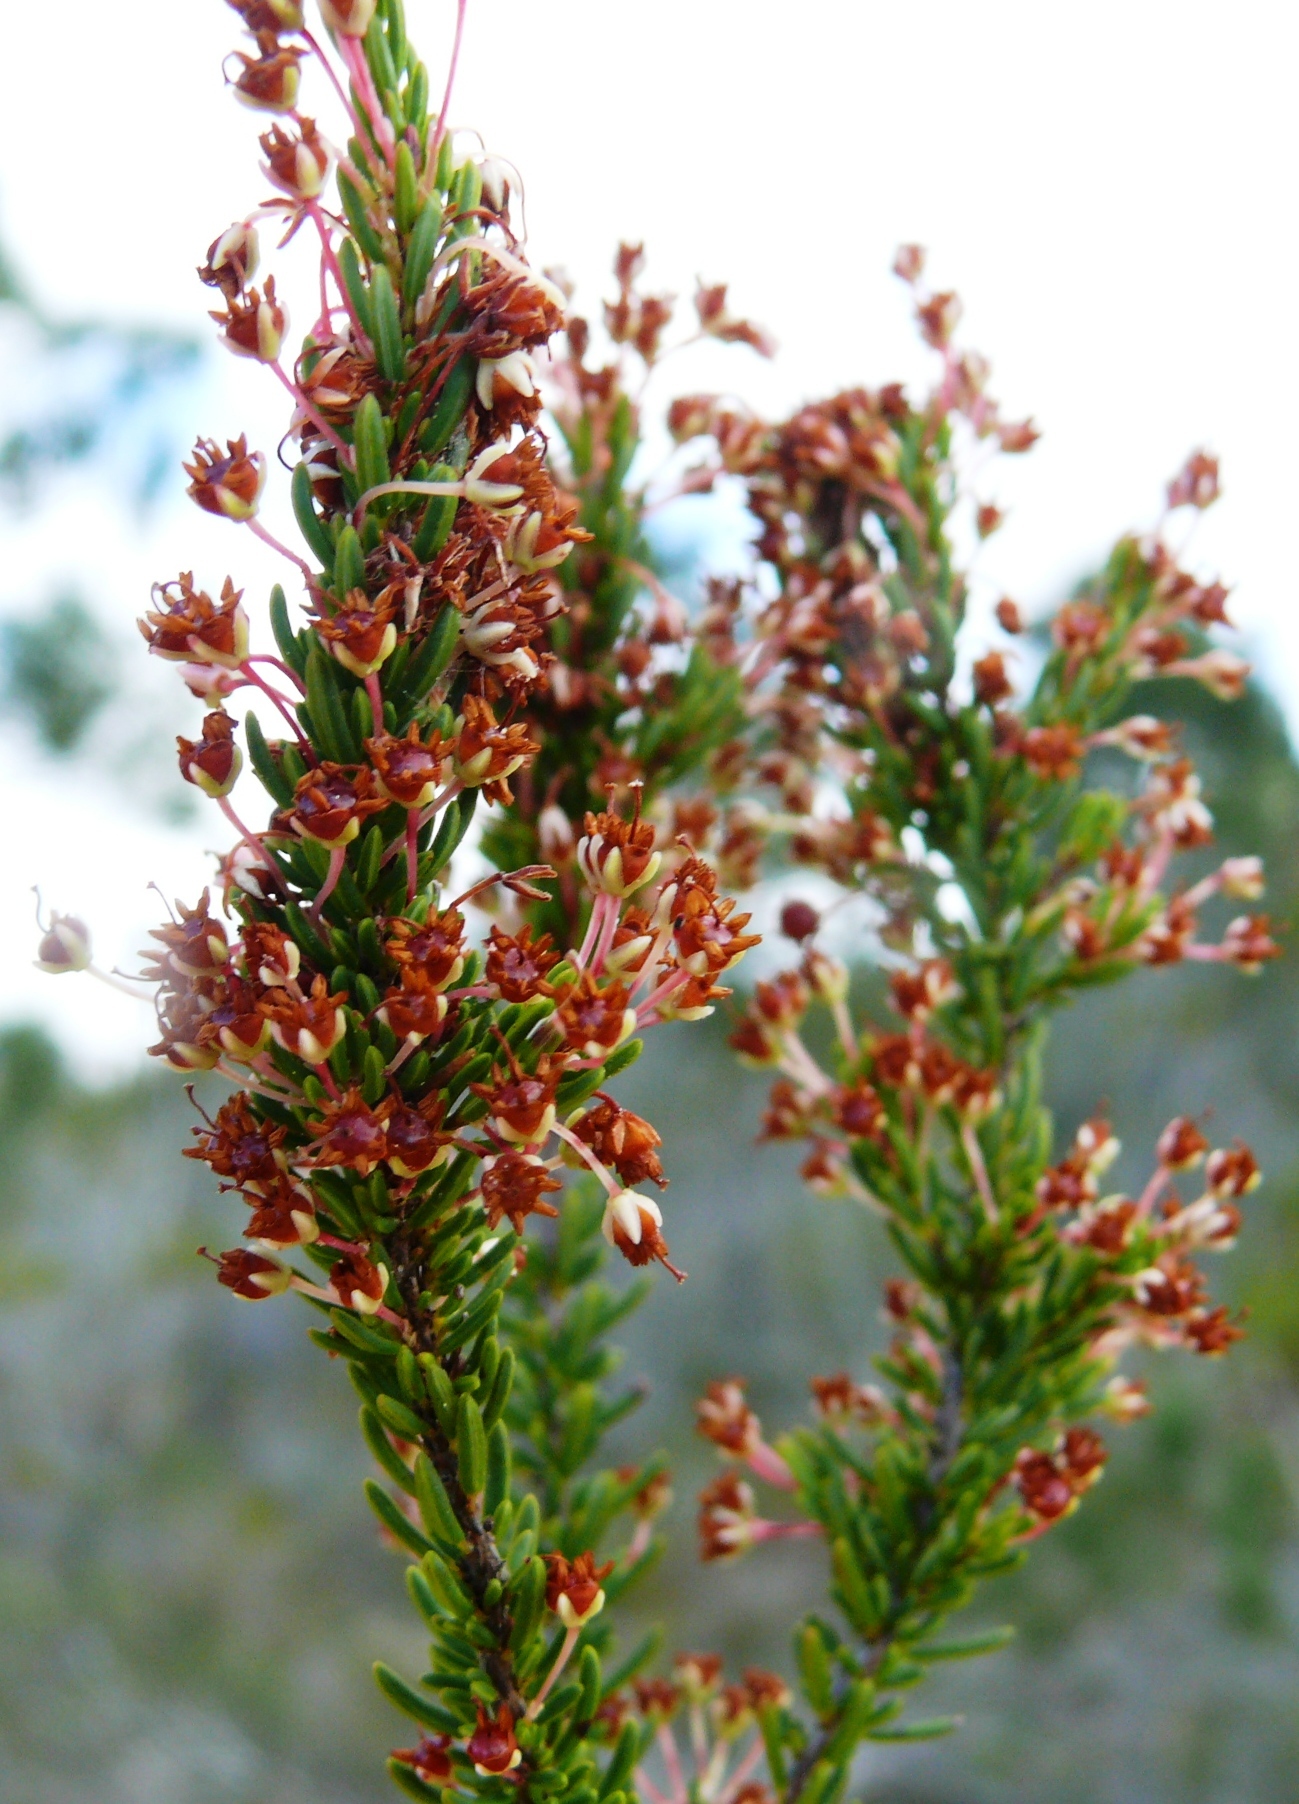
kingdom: Plantae
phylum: Tracheophyta
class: Magnoliopsida
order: Ericales
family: Ericaceae
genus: Erica
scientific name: Erica rubiginosa
